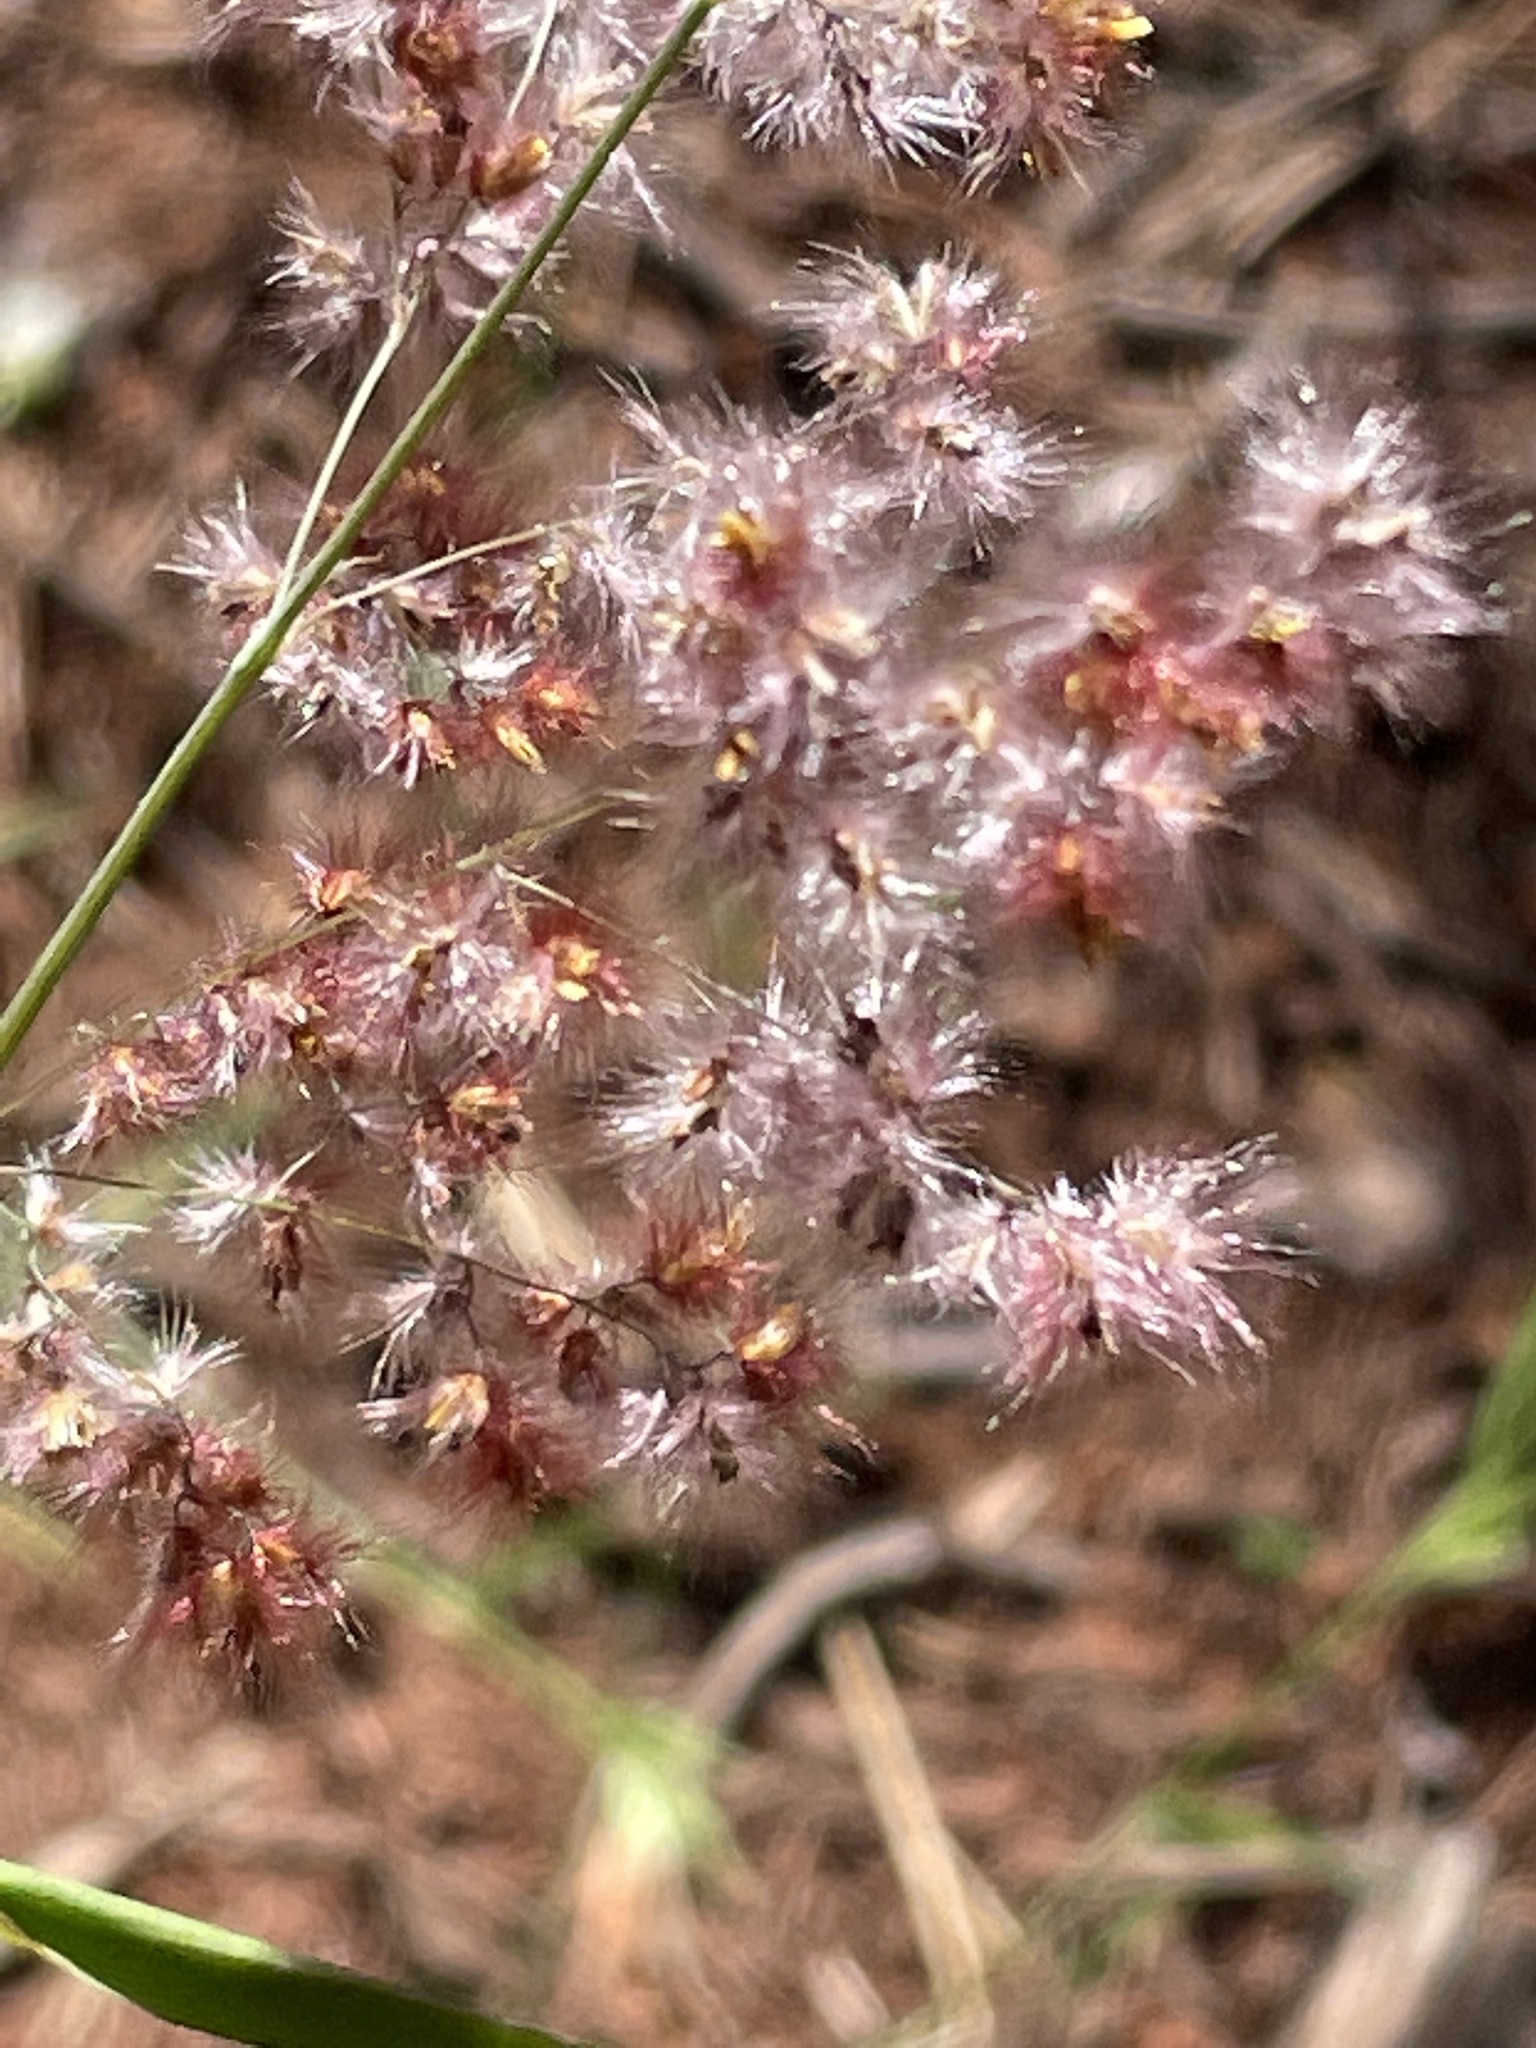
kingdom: Plantae
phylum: Tracheophyta
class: Liliopsida
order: Poales
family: Poaceae
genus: Melinis
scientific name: Melinis repens
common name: Rose natal grass
